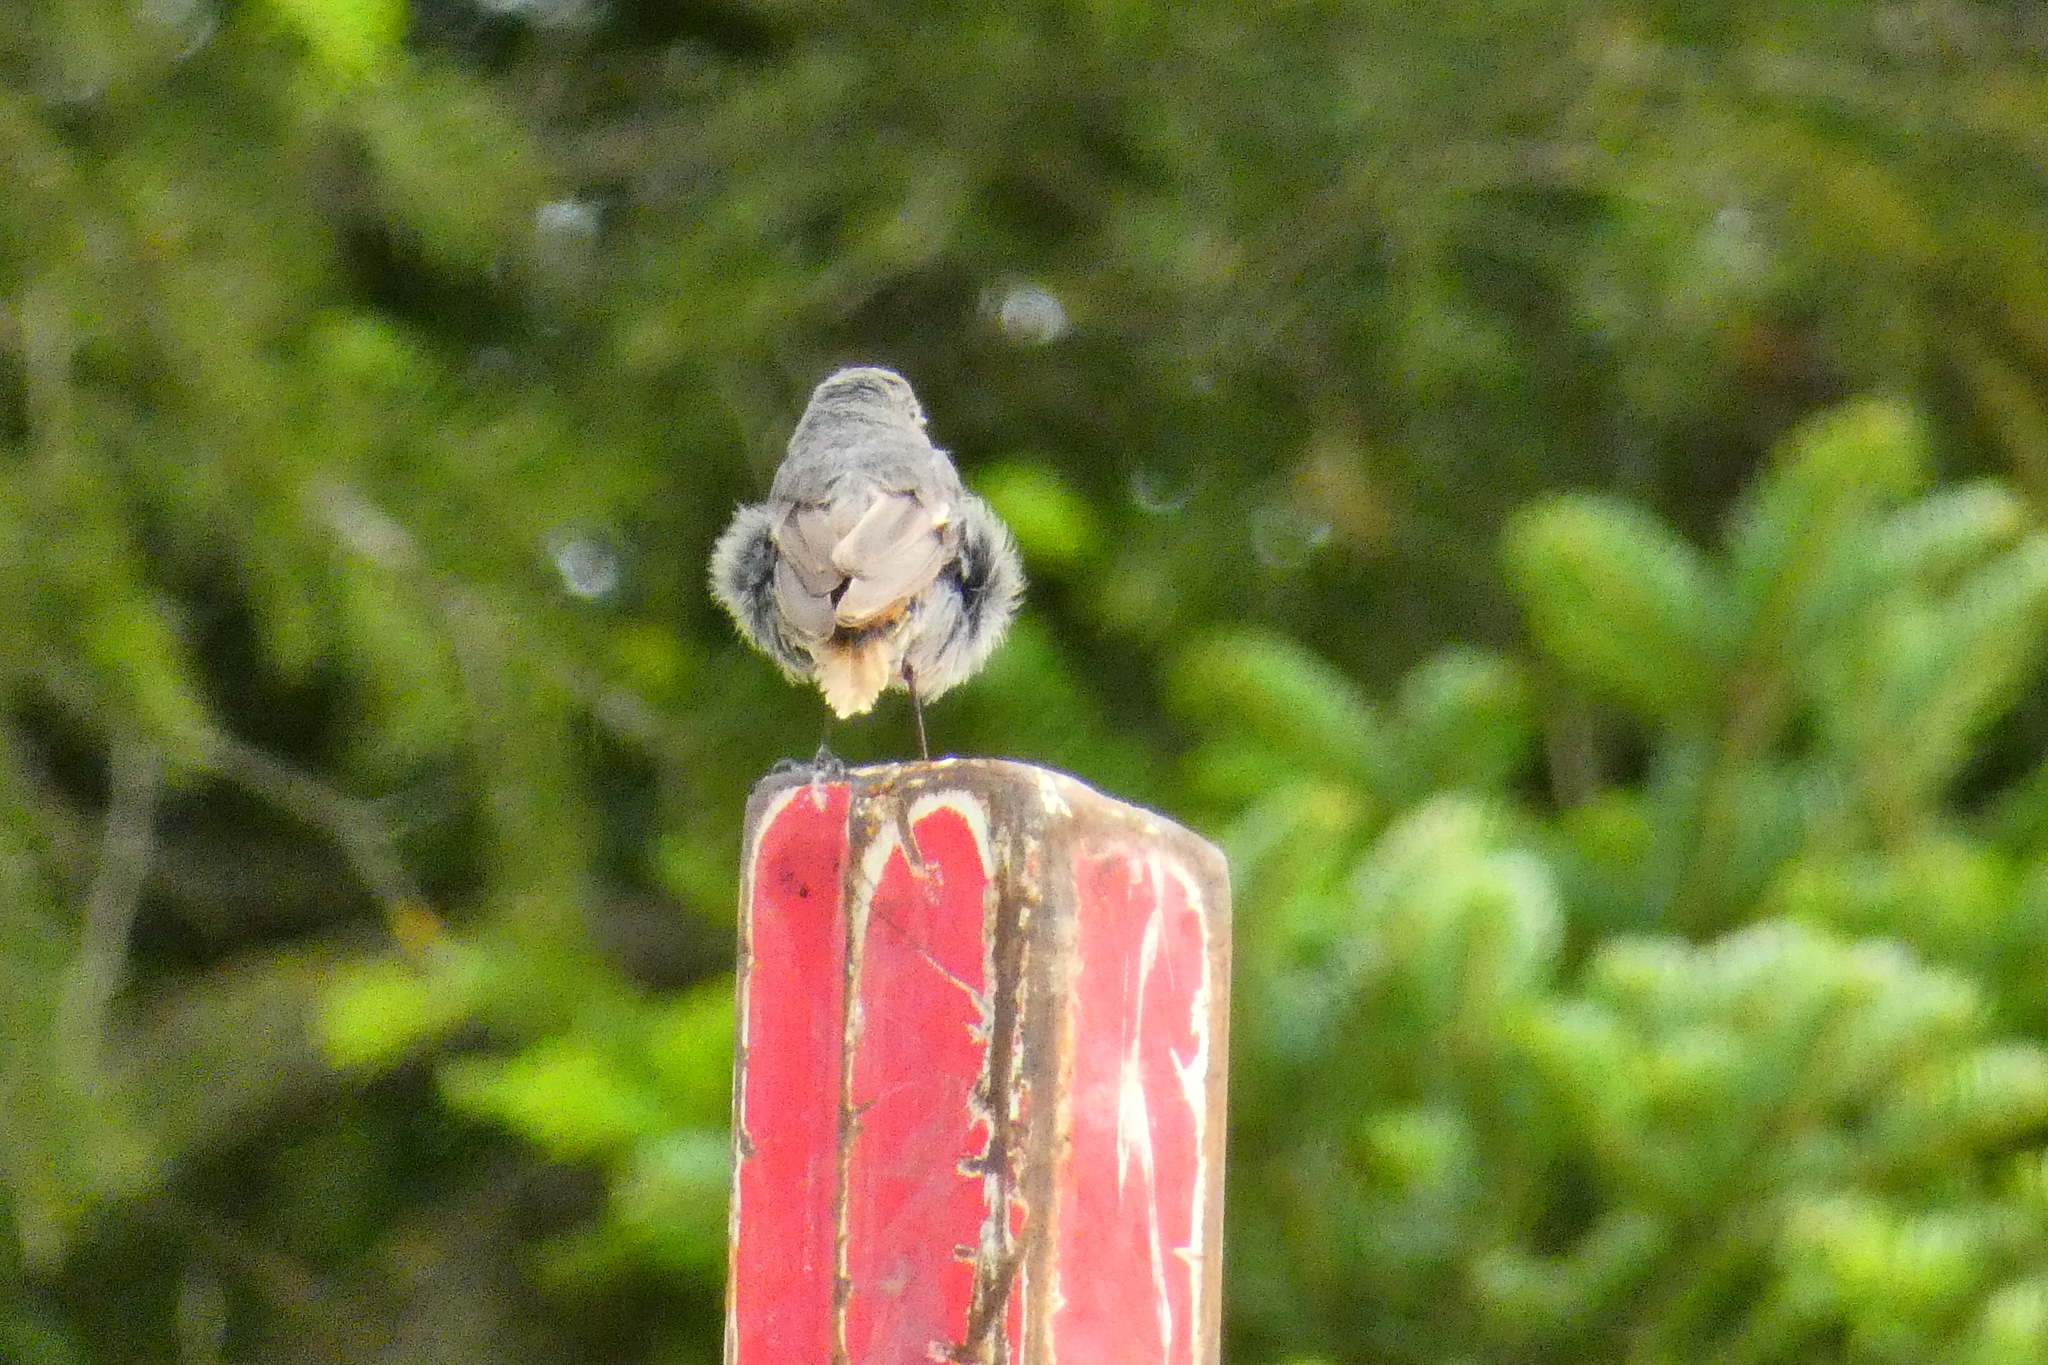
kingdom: Animalia
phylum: Chordata
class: Aves
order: Passeriformes
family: Muscicapidae
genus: Phoenicurus
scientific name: Phoenicurus ochruros
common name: Black redstart
